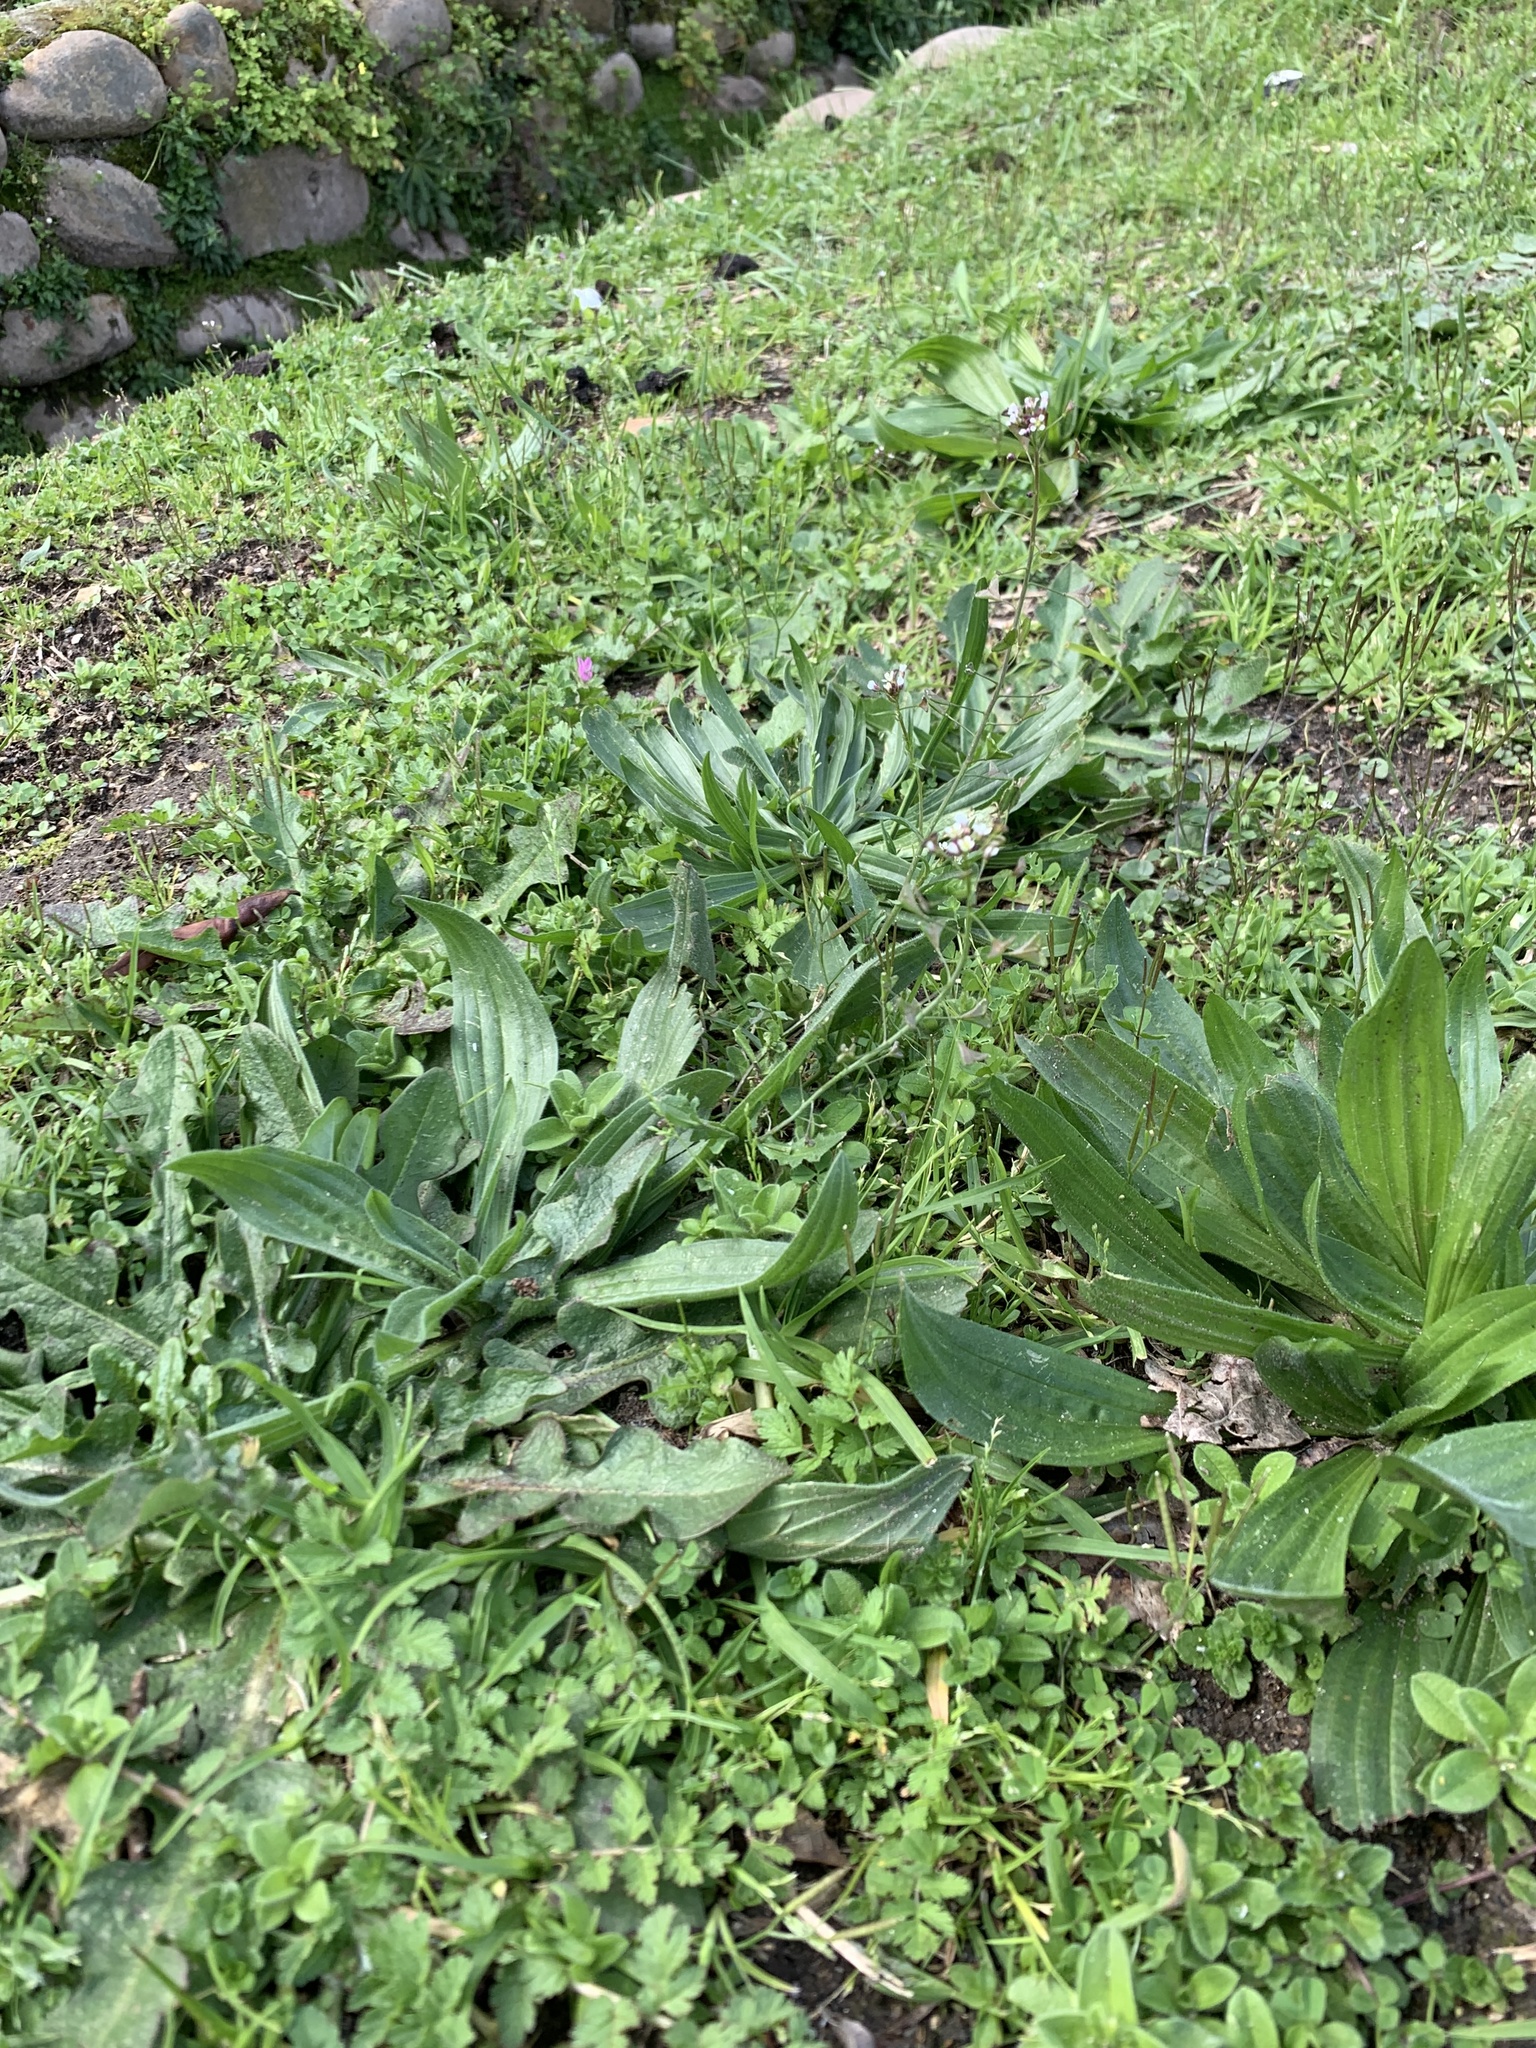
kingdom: Plantae
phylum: Tracheophyta
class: Magnoliopsida
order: Brassicales
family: Brassicaceae
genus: Capsella
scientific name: Capsella bursa-pastoris
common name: Shepherd's purse
